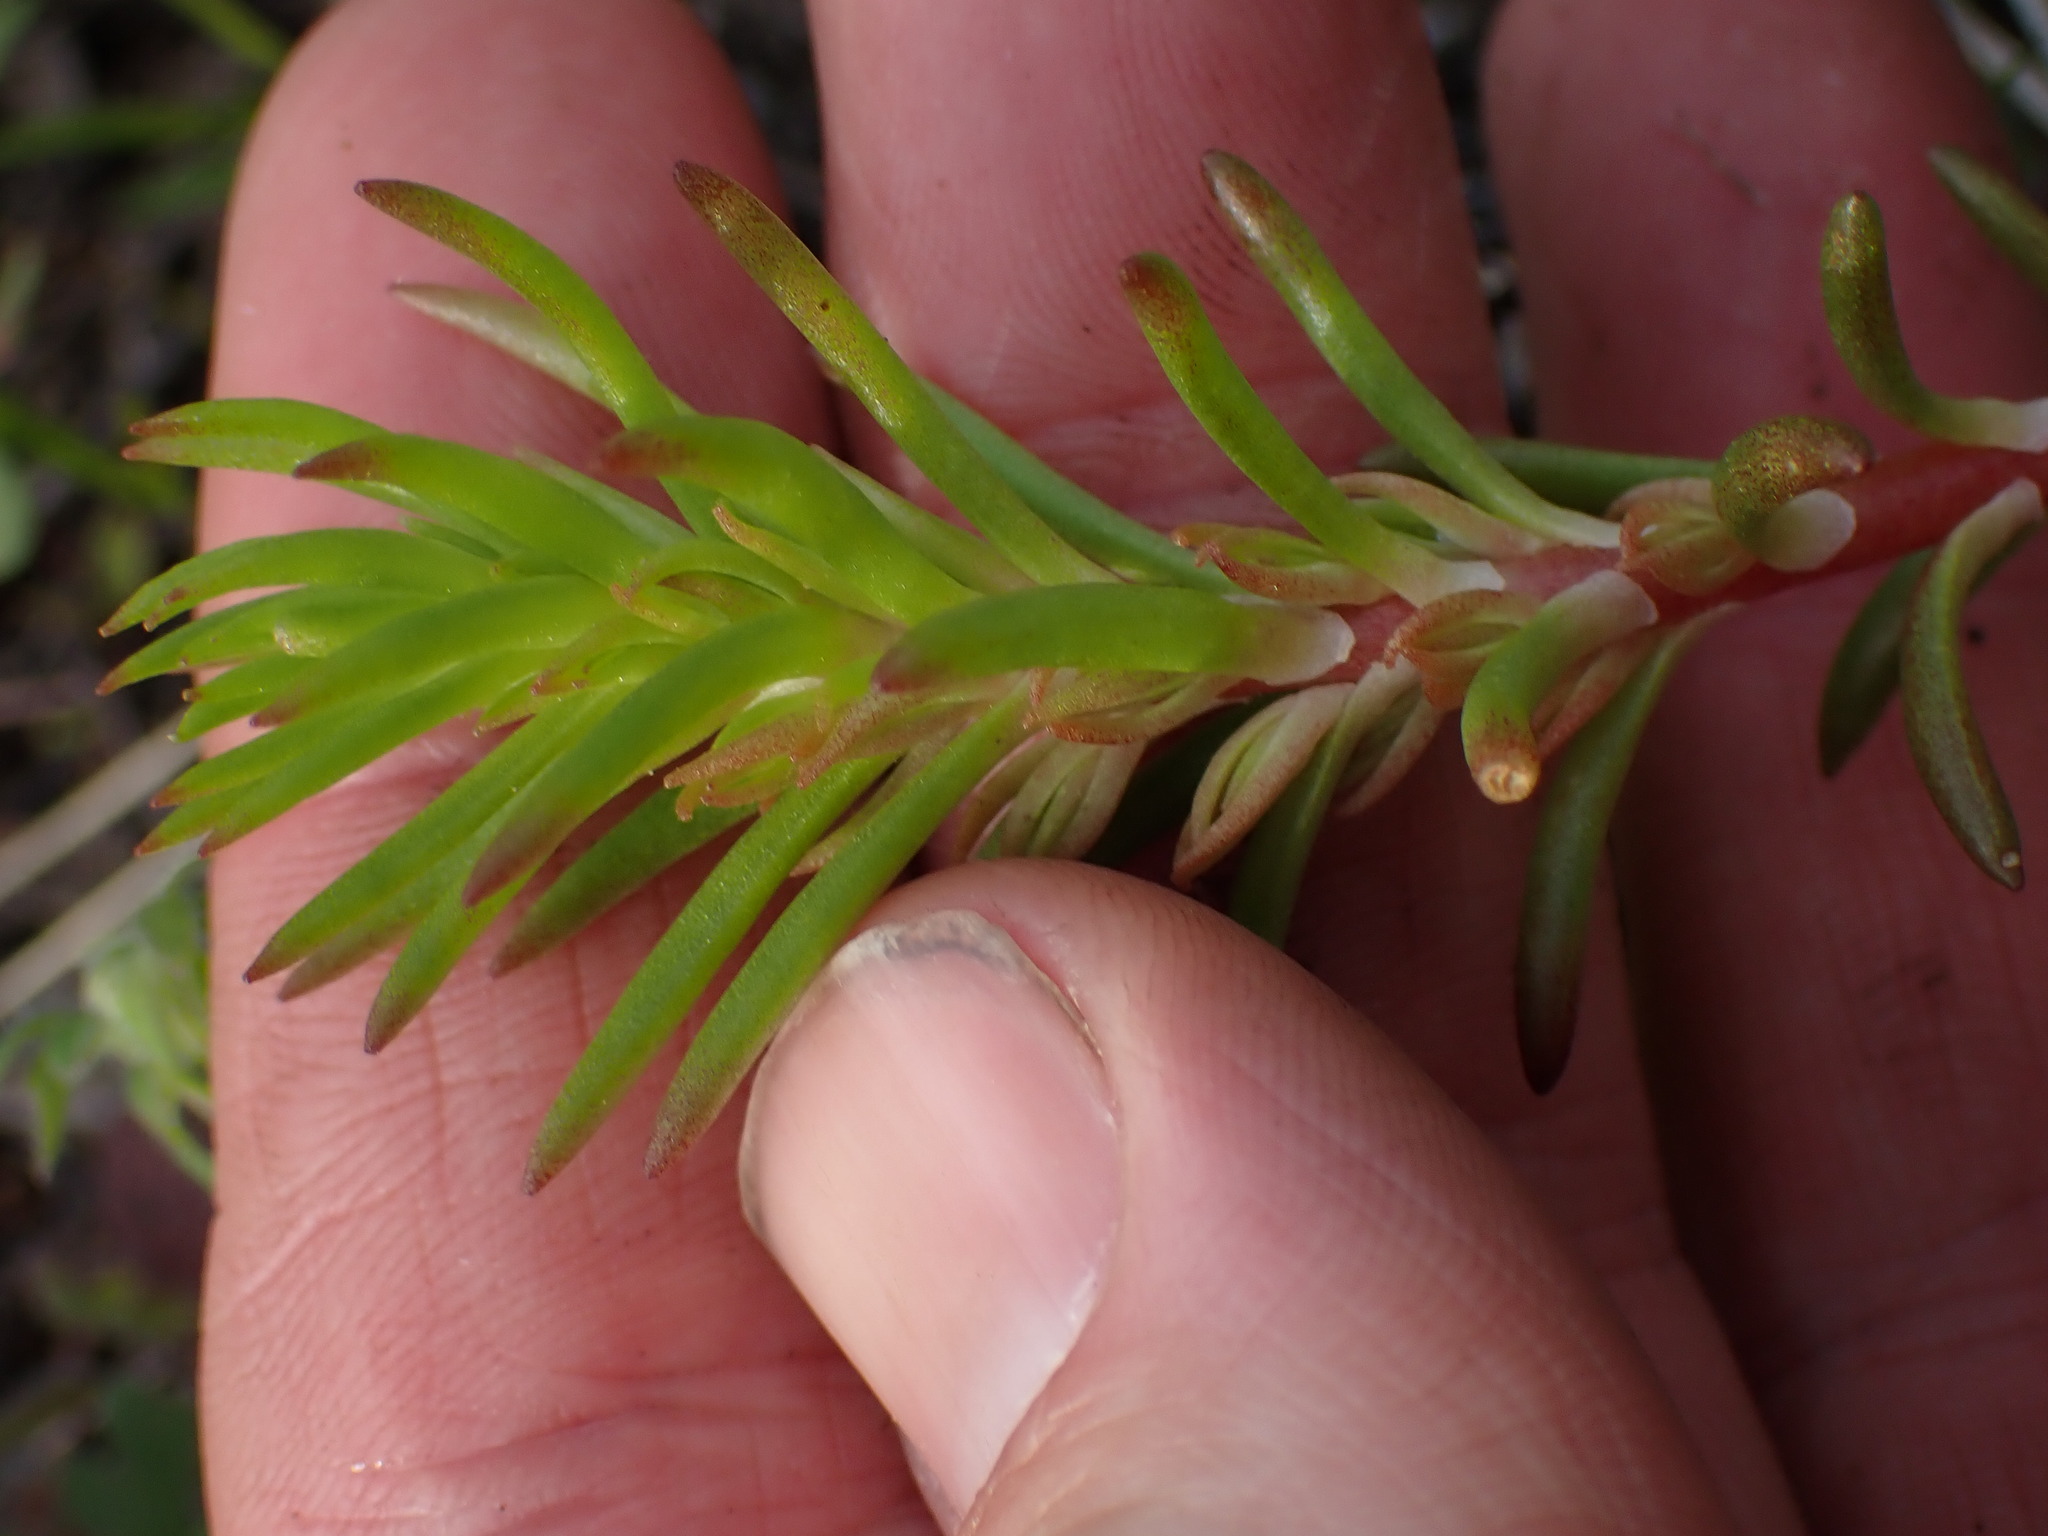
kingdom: Plantae
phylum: Tracheophyta
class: Magnoliopsida
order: Saxifragales
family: Crassulaceae
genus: Sedum
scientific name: Sedum stenopetalum
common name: Narrow-petaled stonecrop
